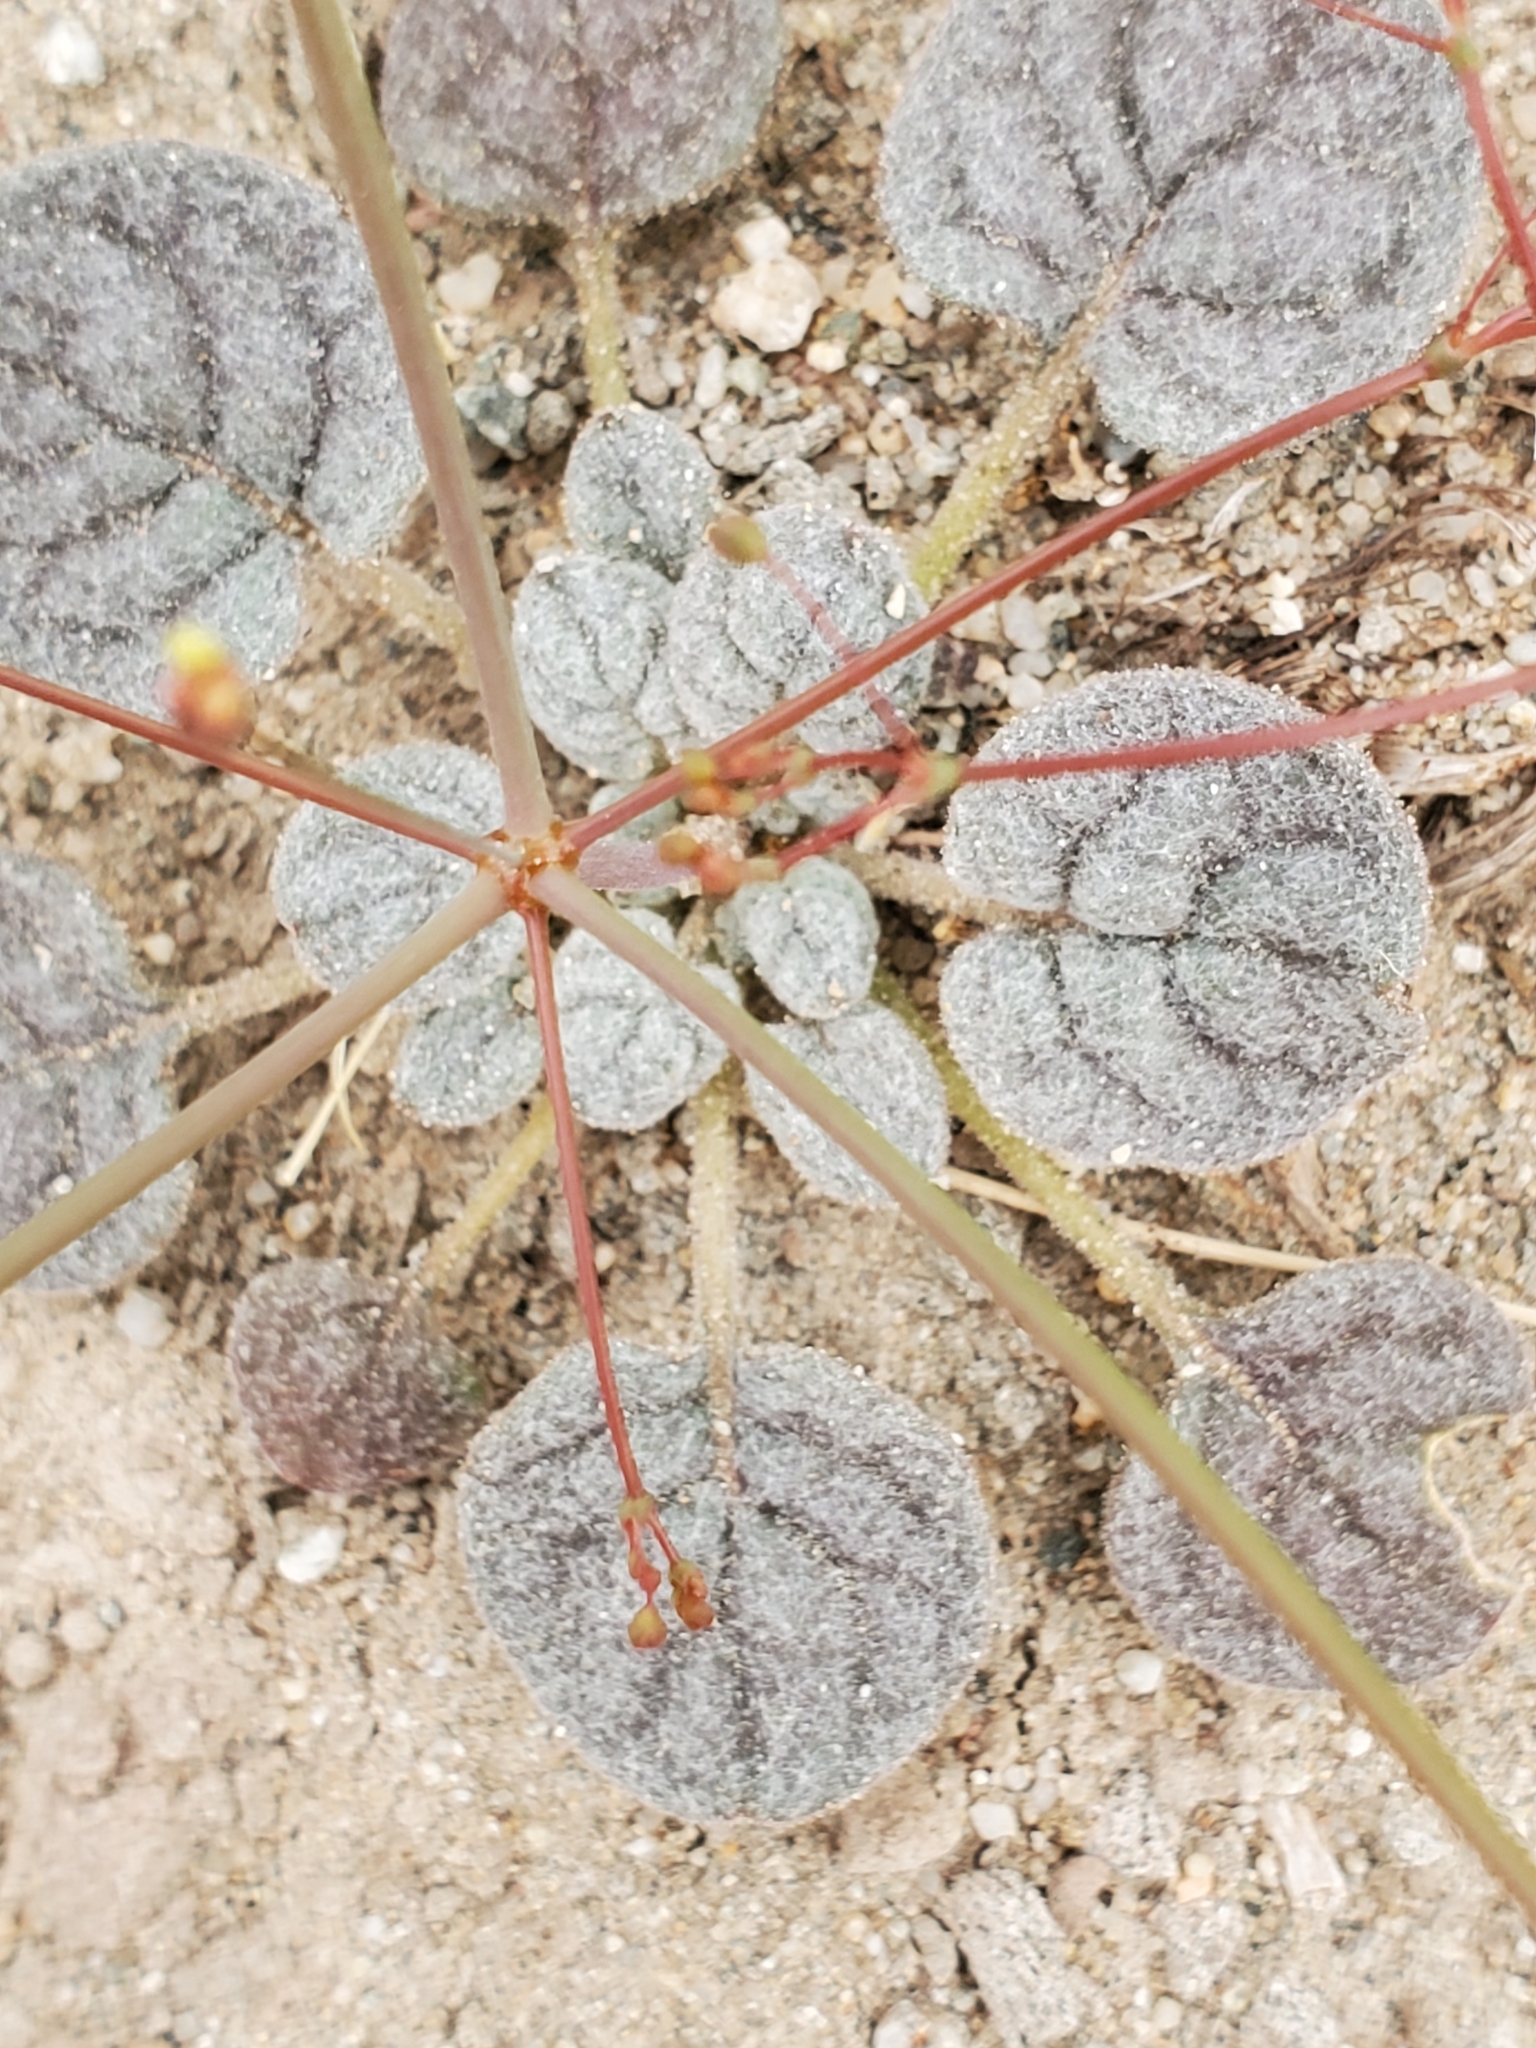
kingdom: Plantae
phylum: Tracheophyta
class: Magnoliopsida
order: Caryophyllales
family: Polygonaceae
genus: Eriogonum
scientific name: Eriogonum thomasii
